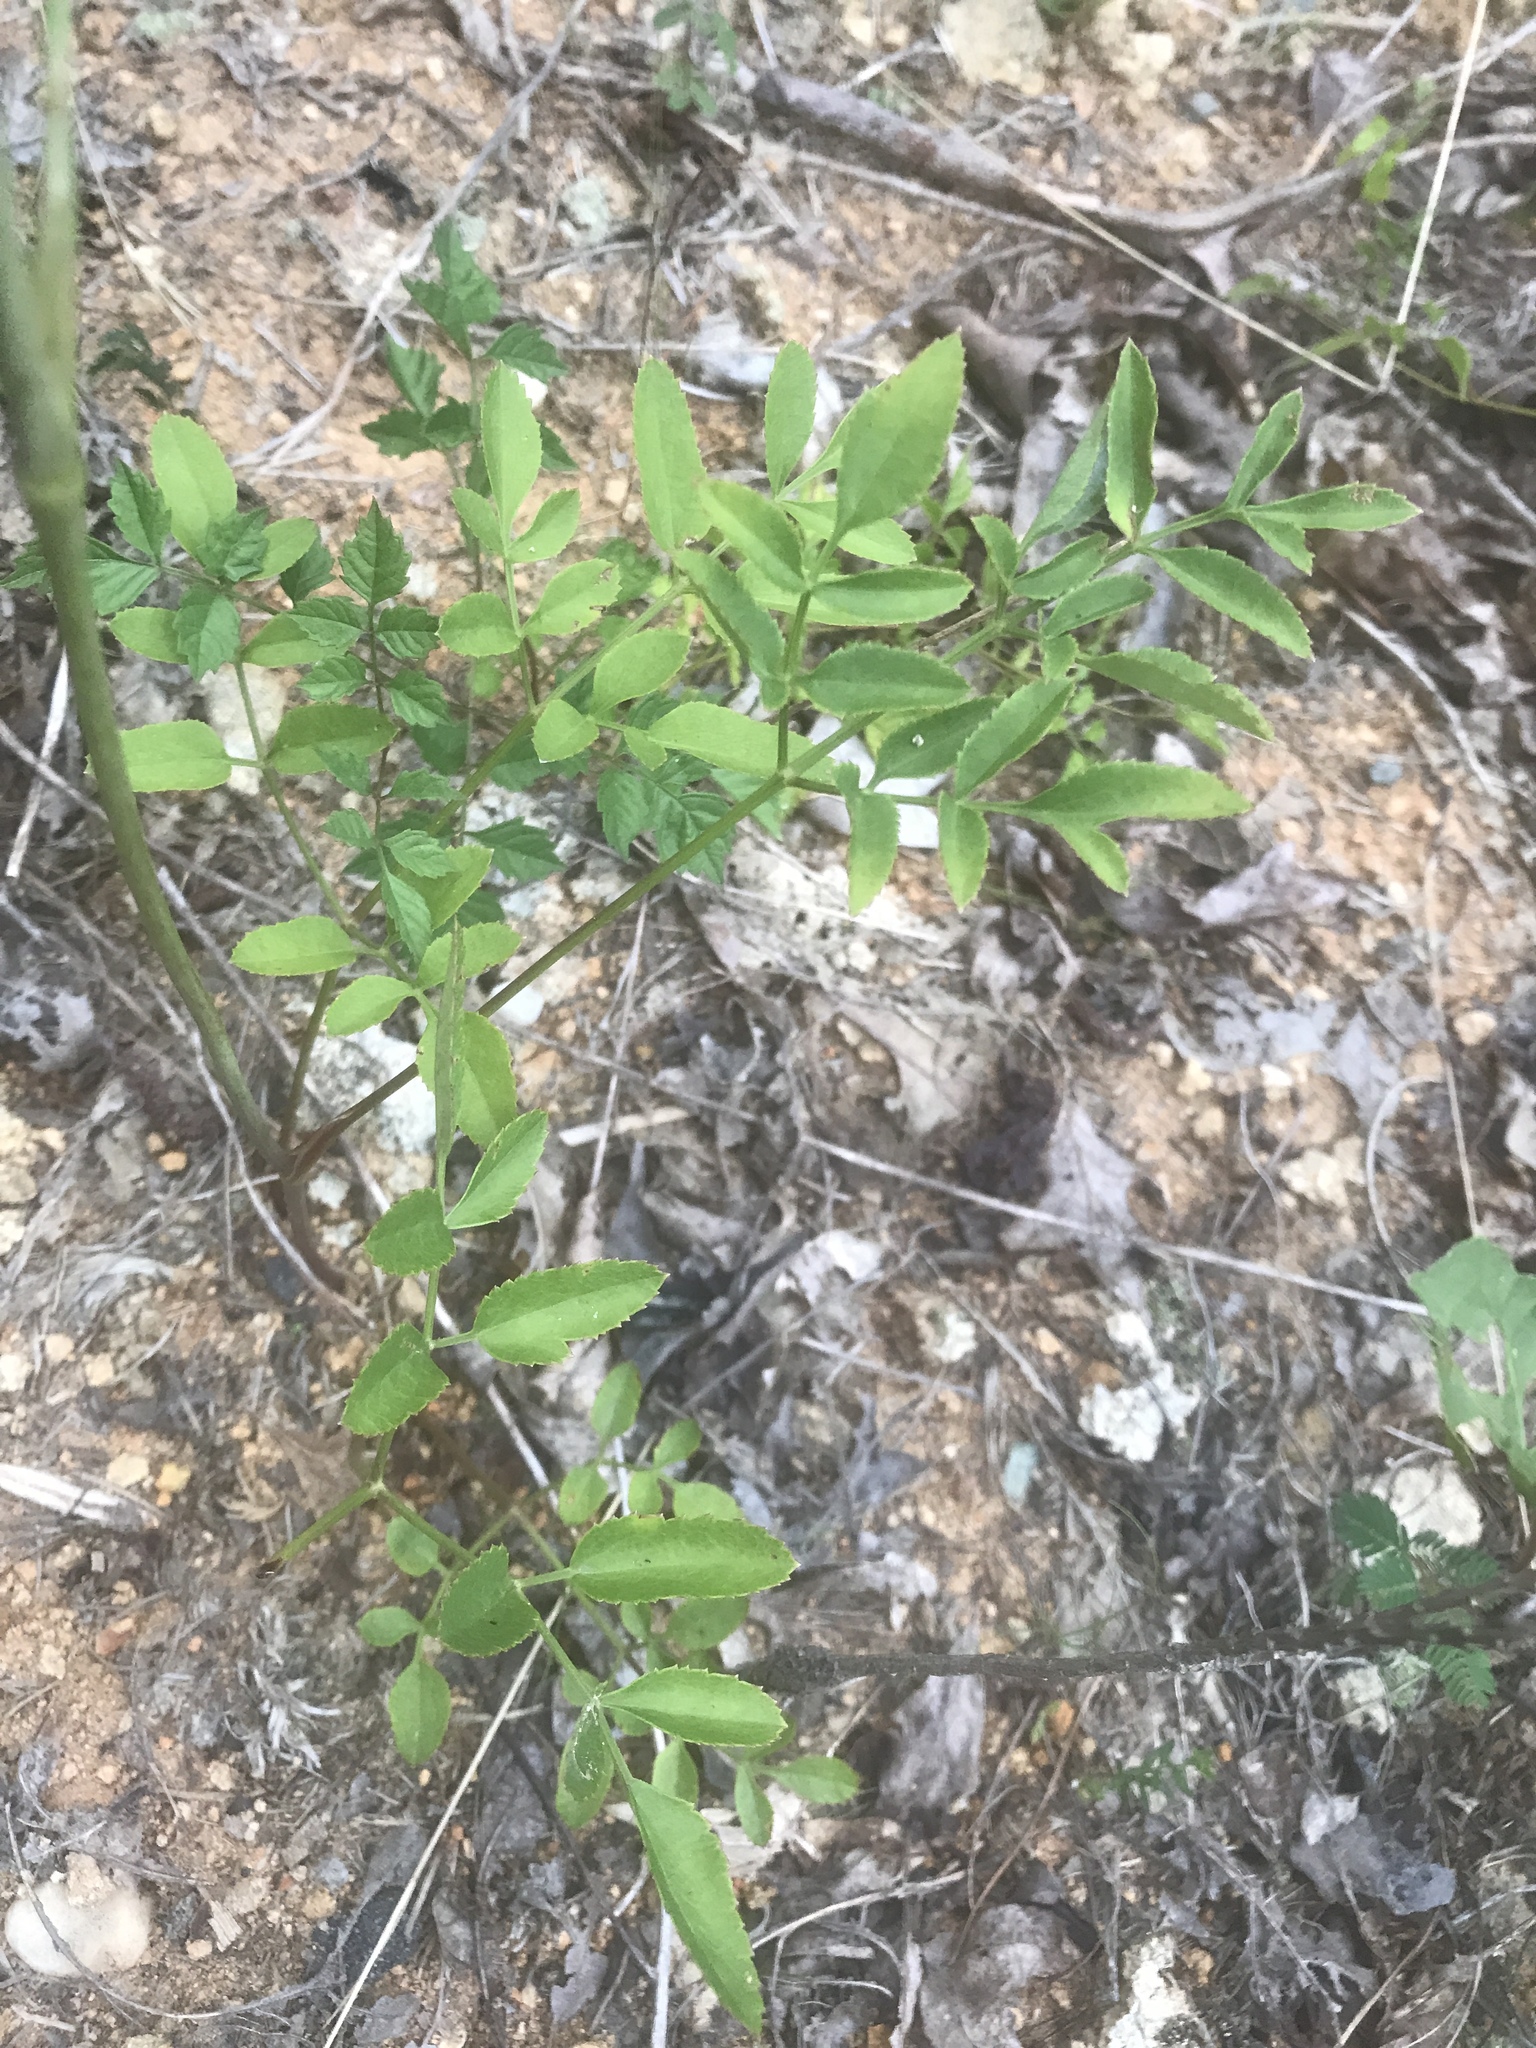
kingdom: Plantae
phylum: Tracheophyta
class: Magnoliopsida
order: Apiales
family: Apiaceae
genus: Angelica
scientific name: Angelica venenosa
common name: Hairy angelica
